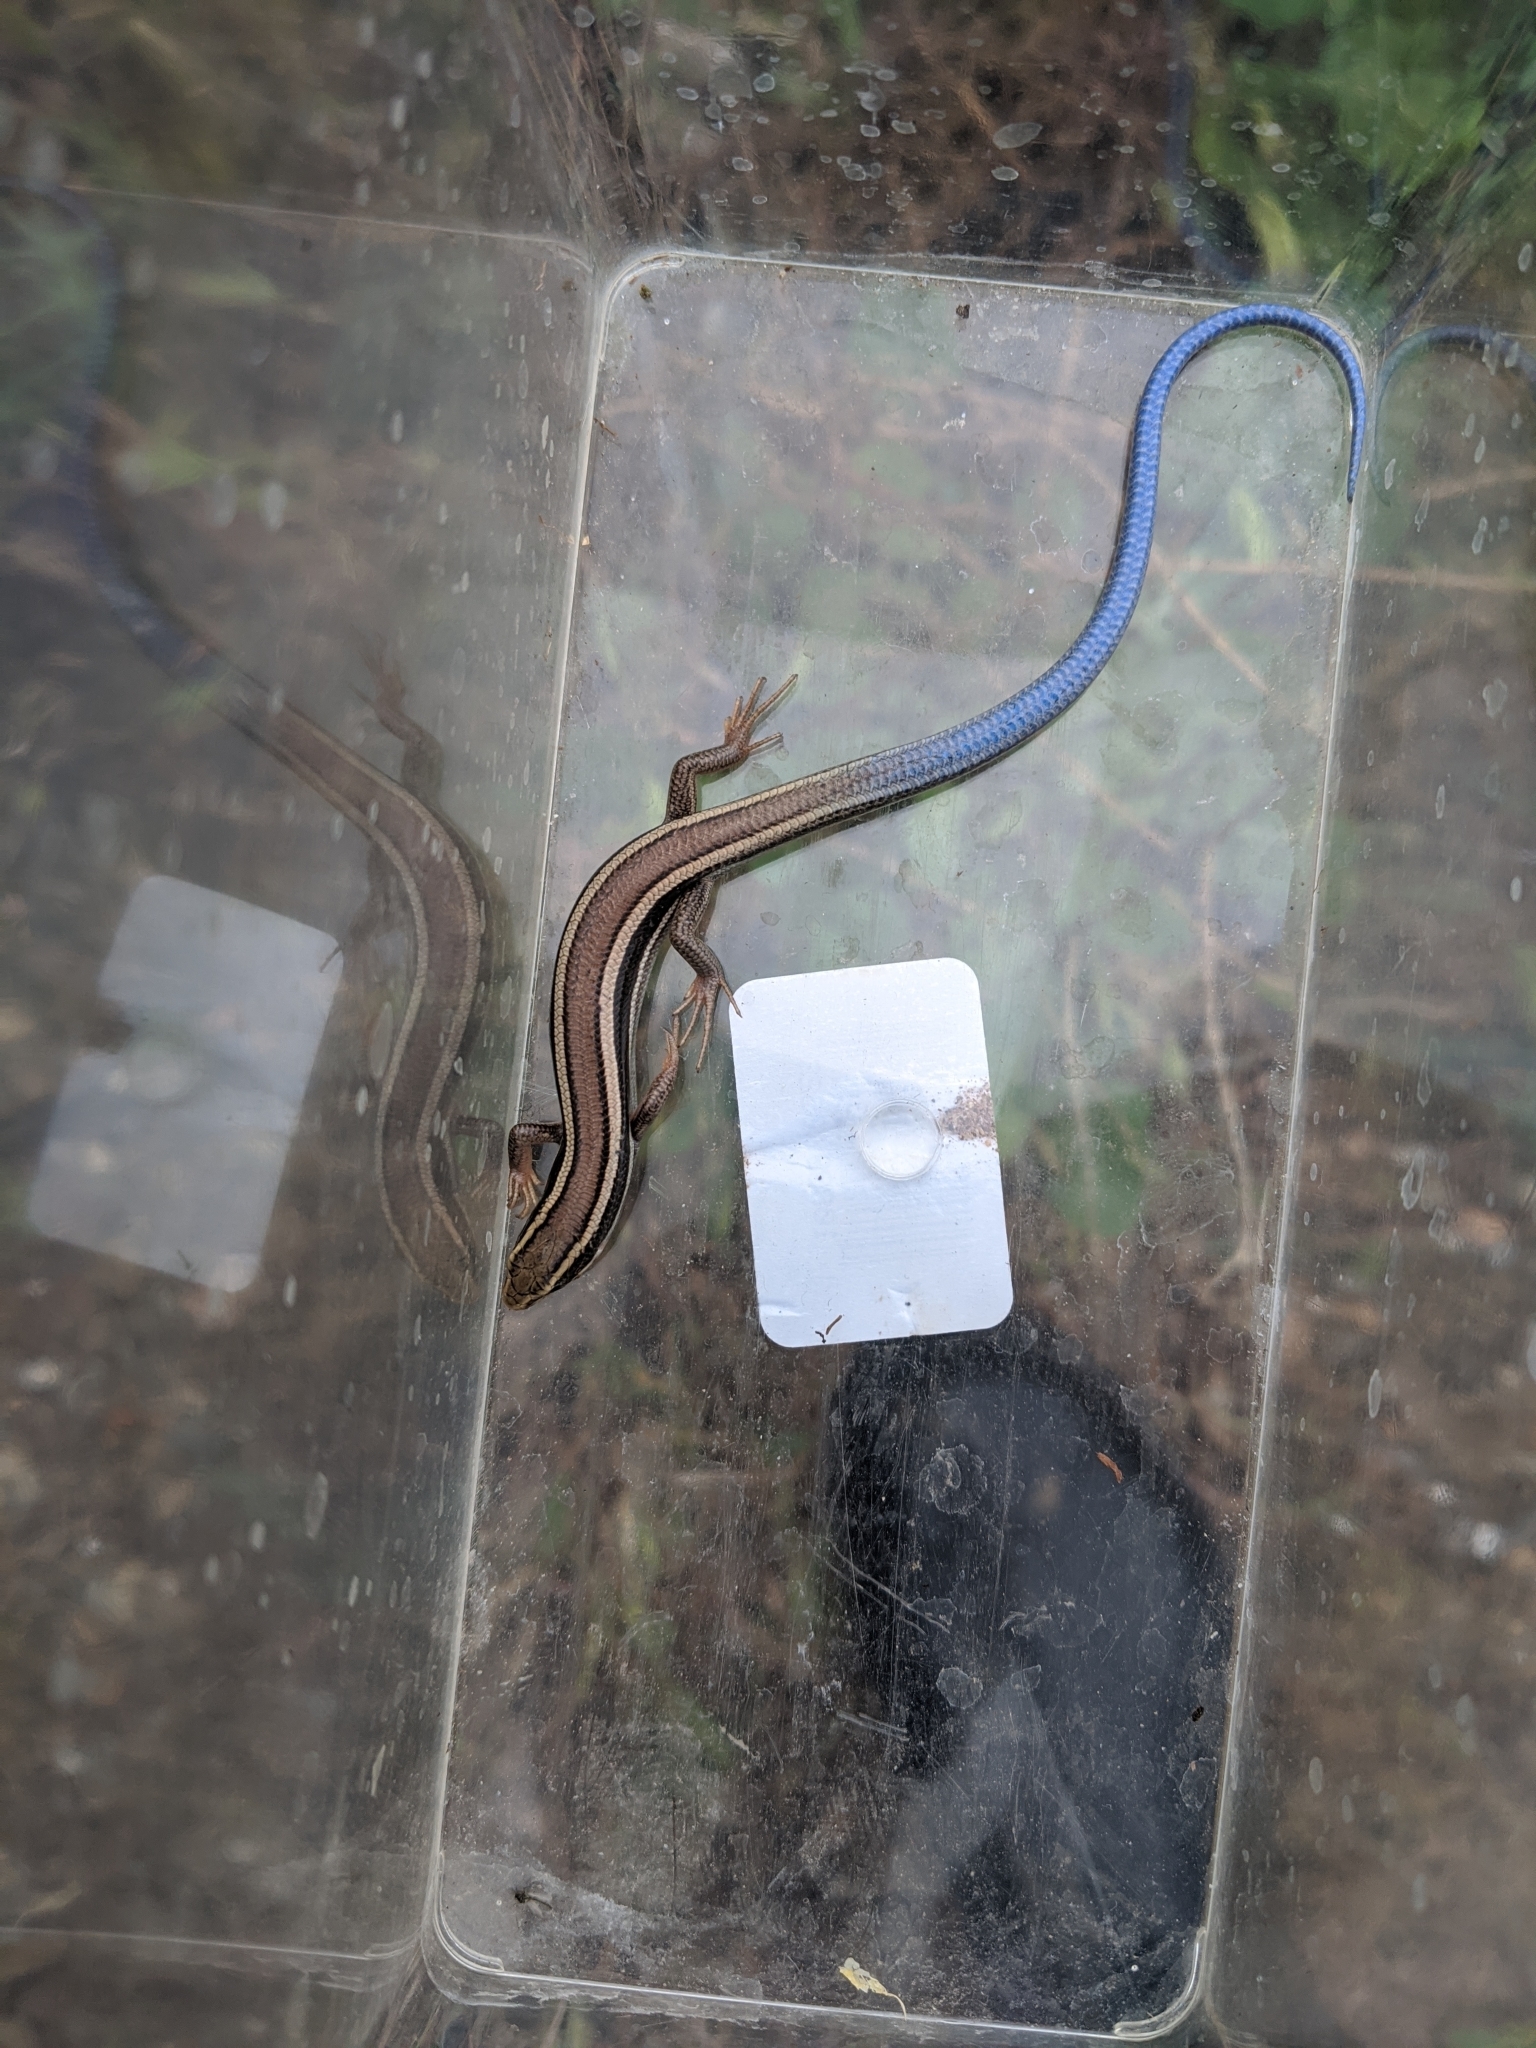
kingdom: Animalia
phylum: Chordata
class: Squamata
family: Scincidae
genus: Plestiodon
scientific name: Plestiodon skiltonianus
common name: Coronado island skink [interparietalis]
